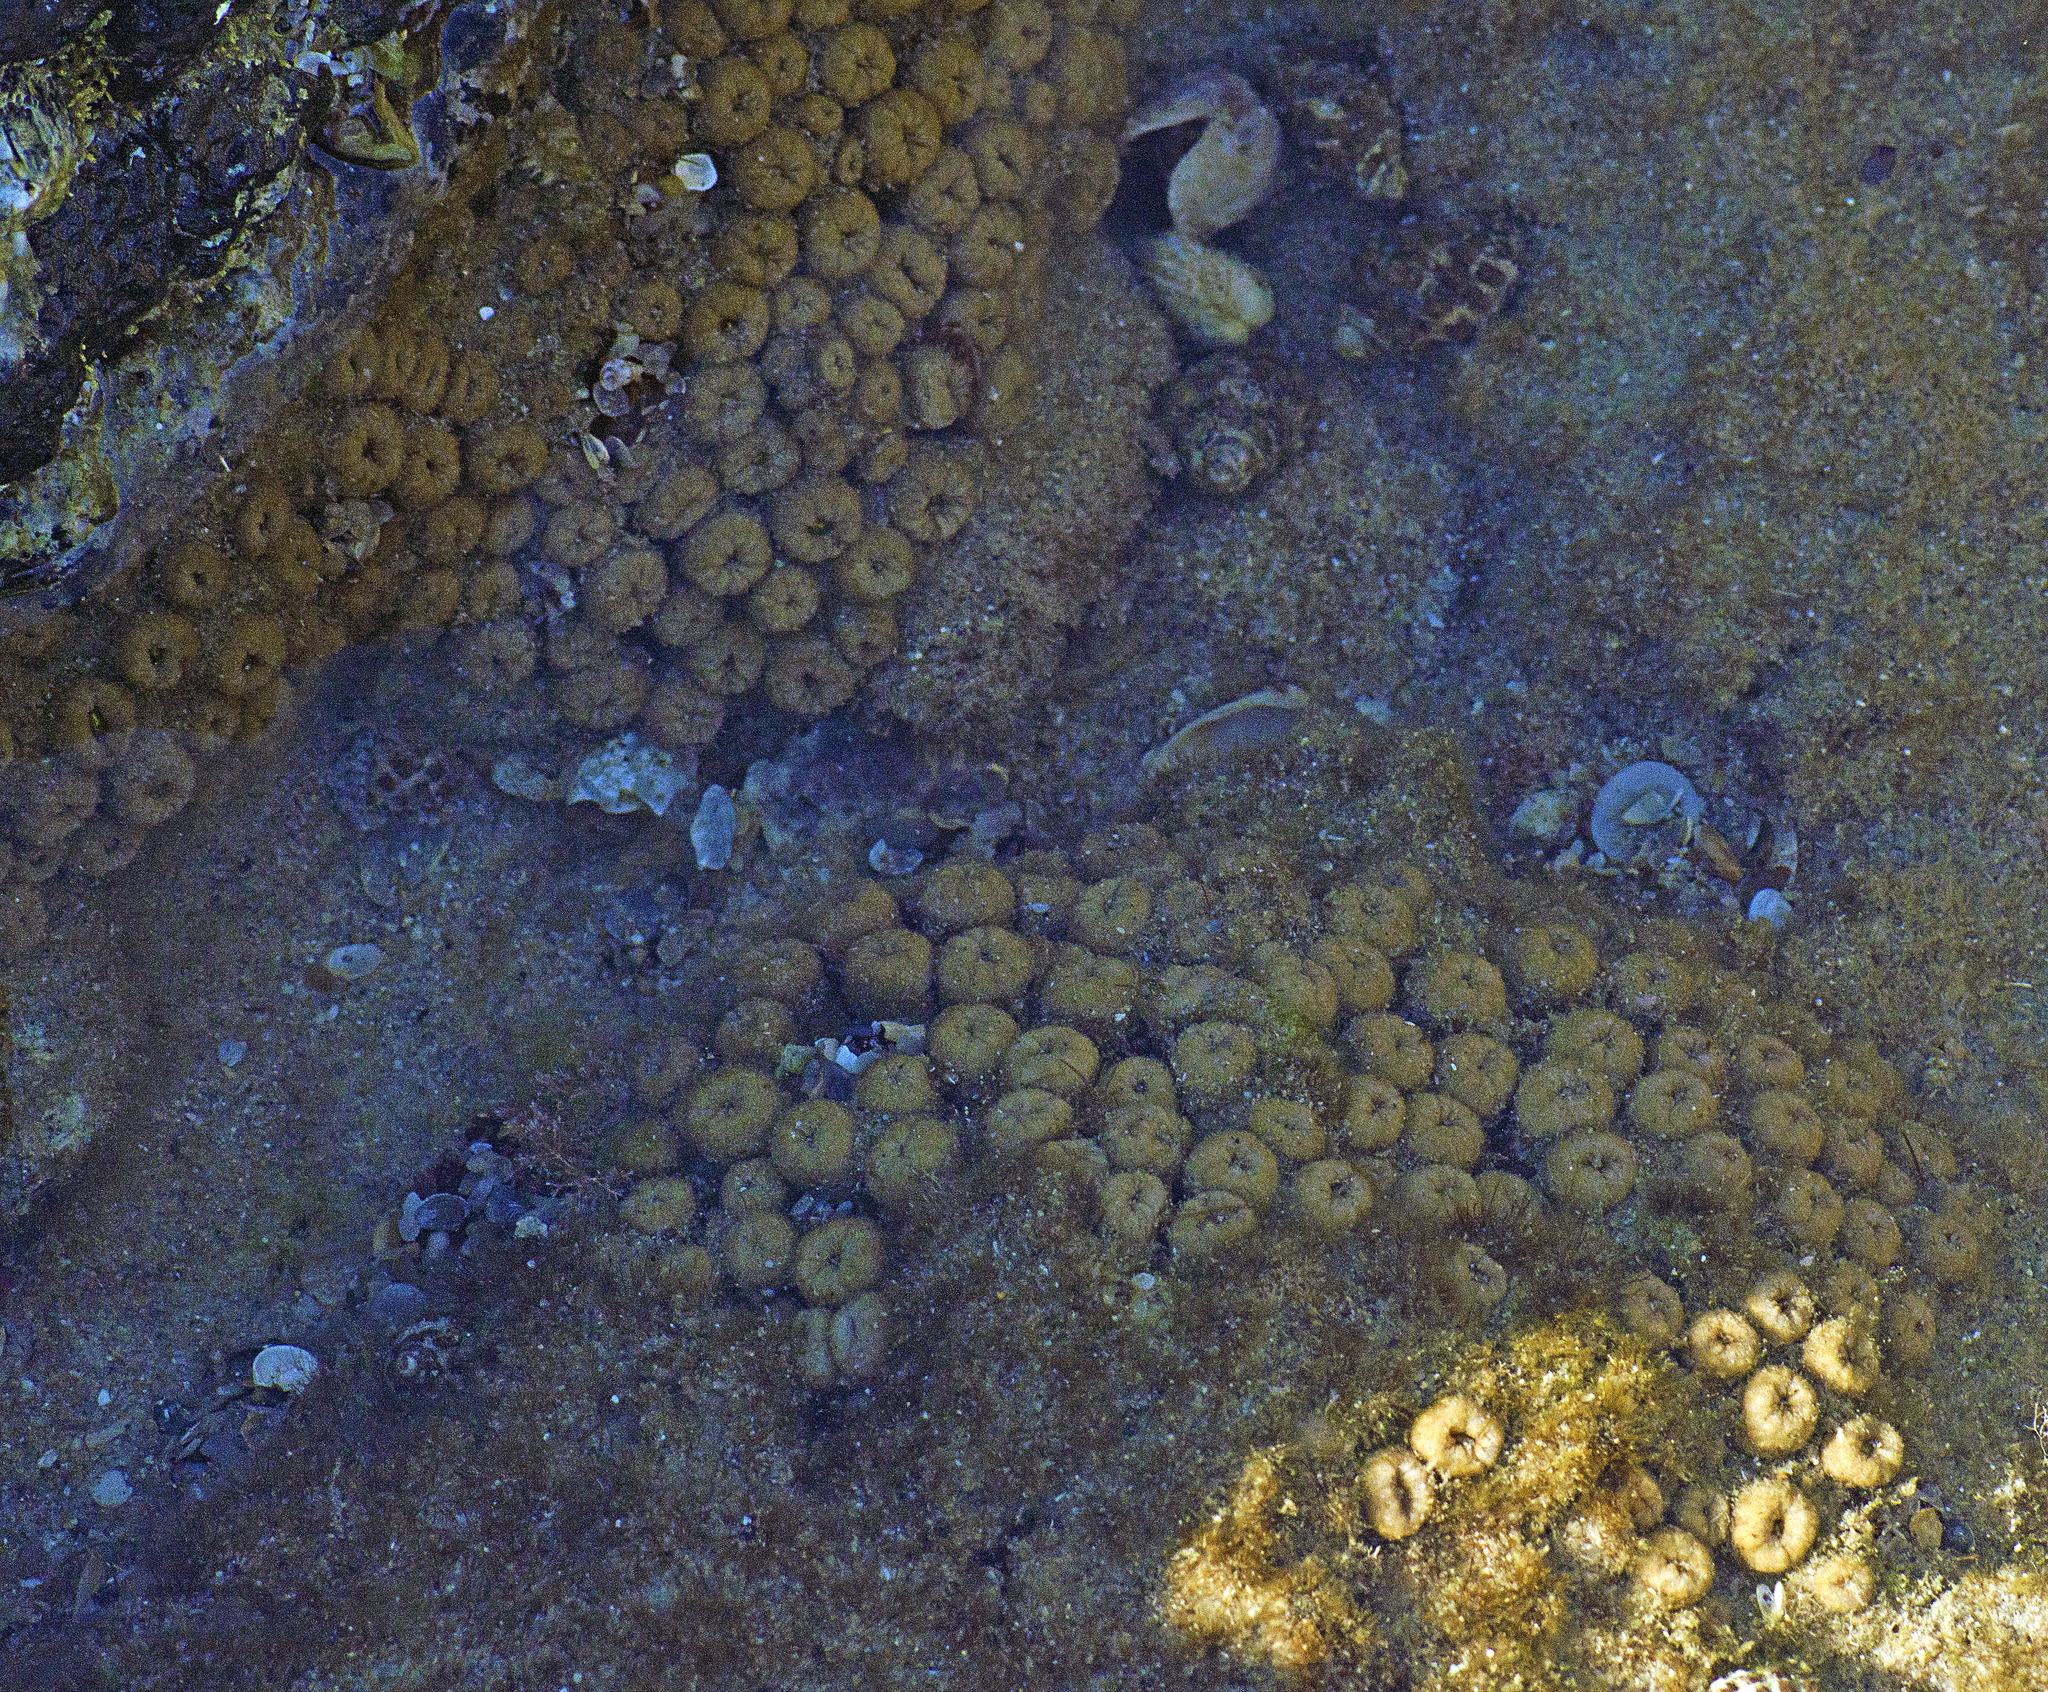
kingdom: Animalia
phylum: Cnidaria
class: Anthozoa
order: Zoantharia
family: Sphenopidae
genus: Palythoa
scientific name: Palythoa mutuki
